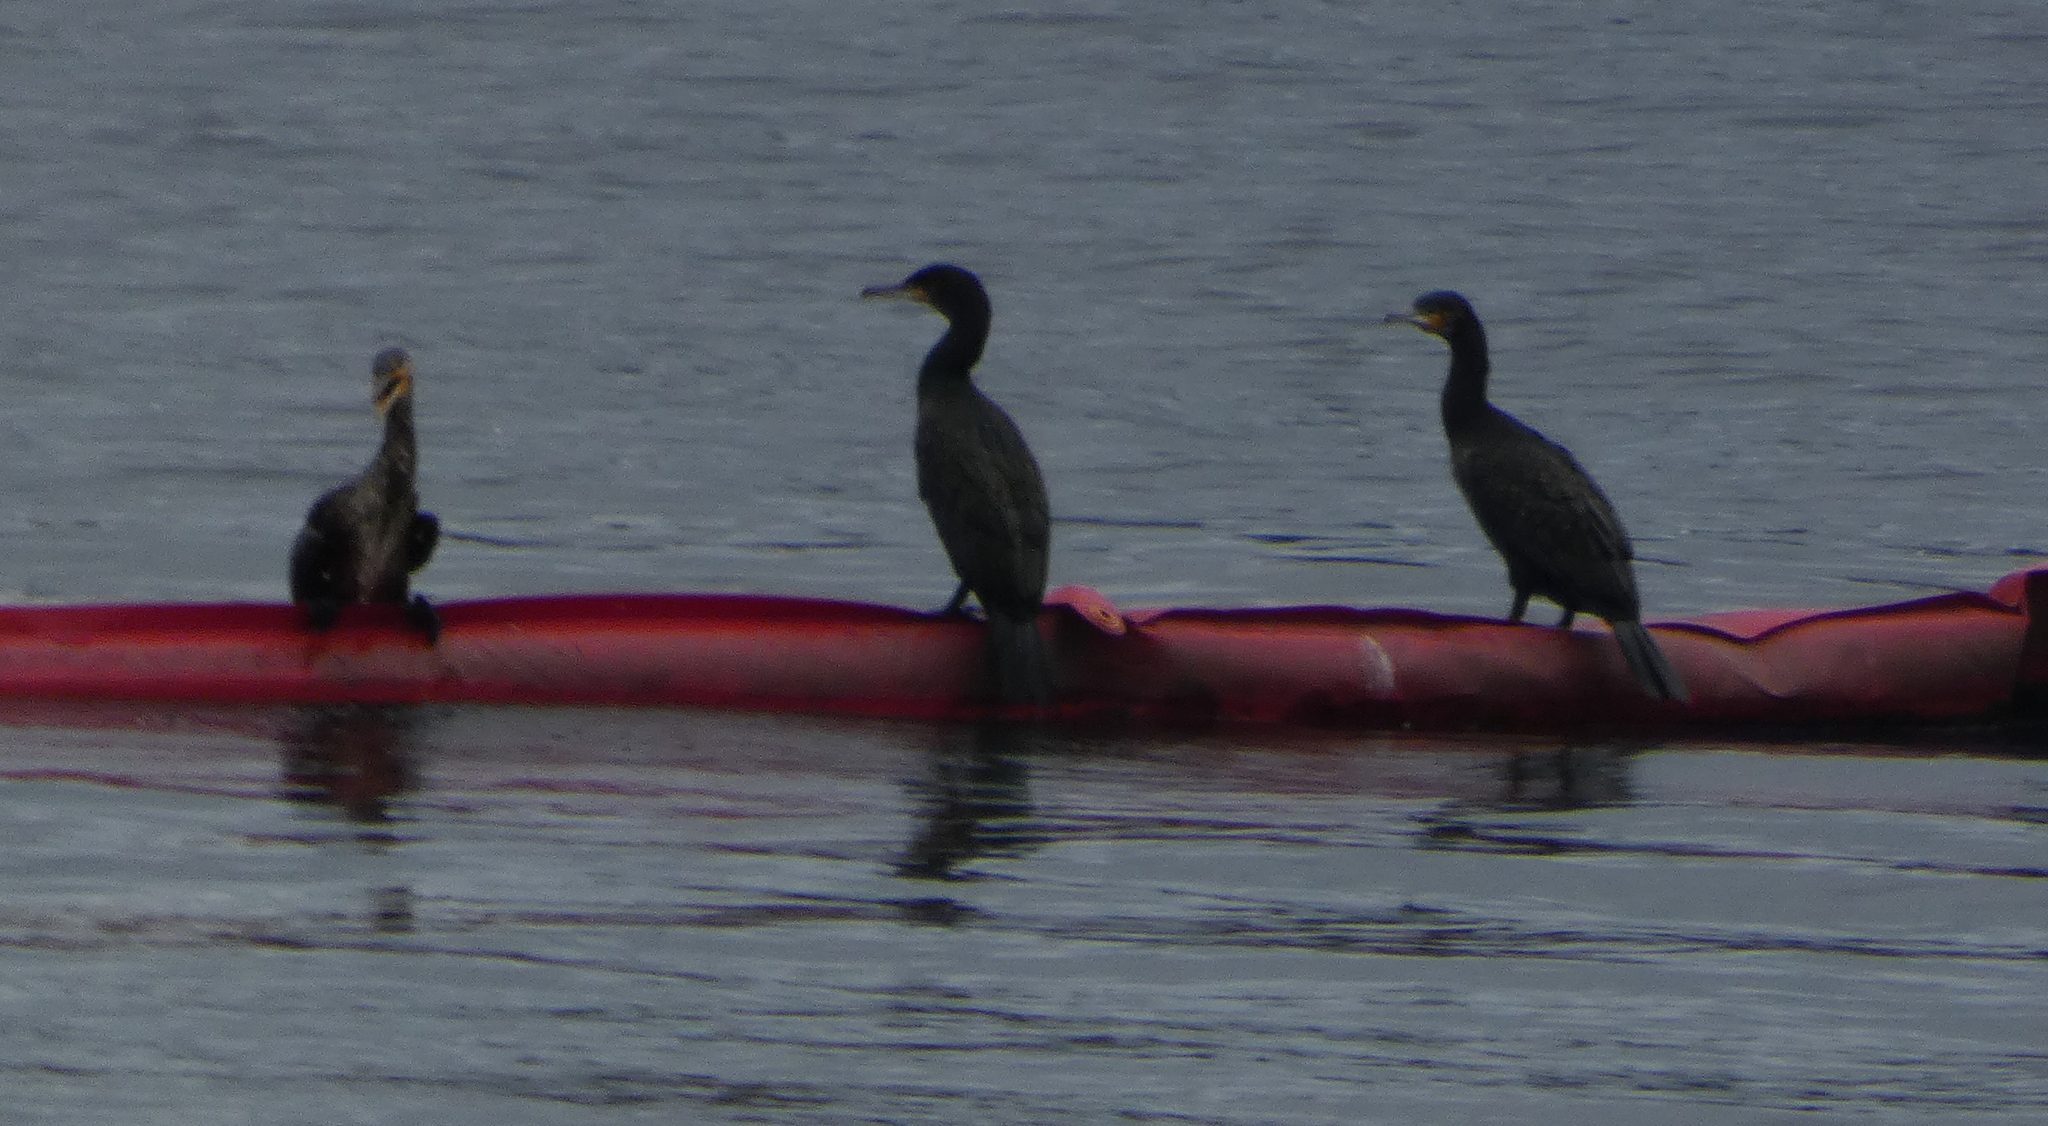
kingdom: Animalia
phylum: Chordata
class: Aves
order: Suliformes
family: Phalacrocoracidae
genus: Phalacrocorax
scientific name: Phalacrocorax carbo
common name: Great cormorant
